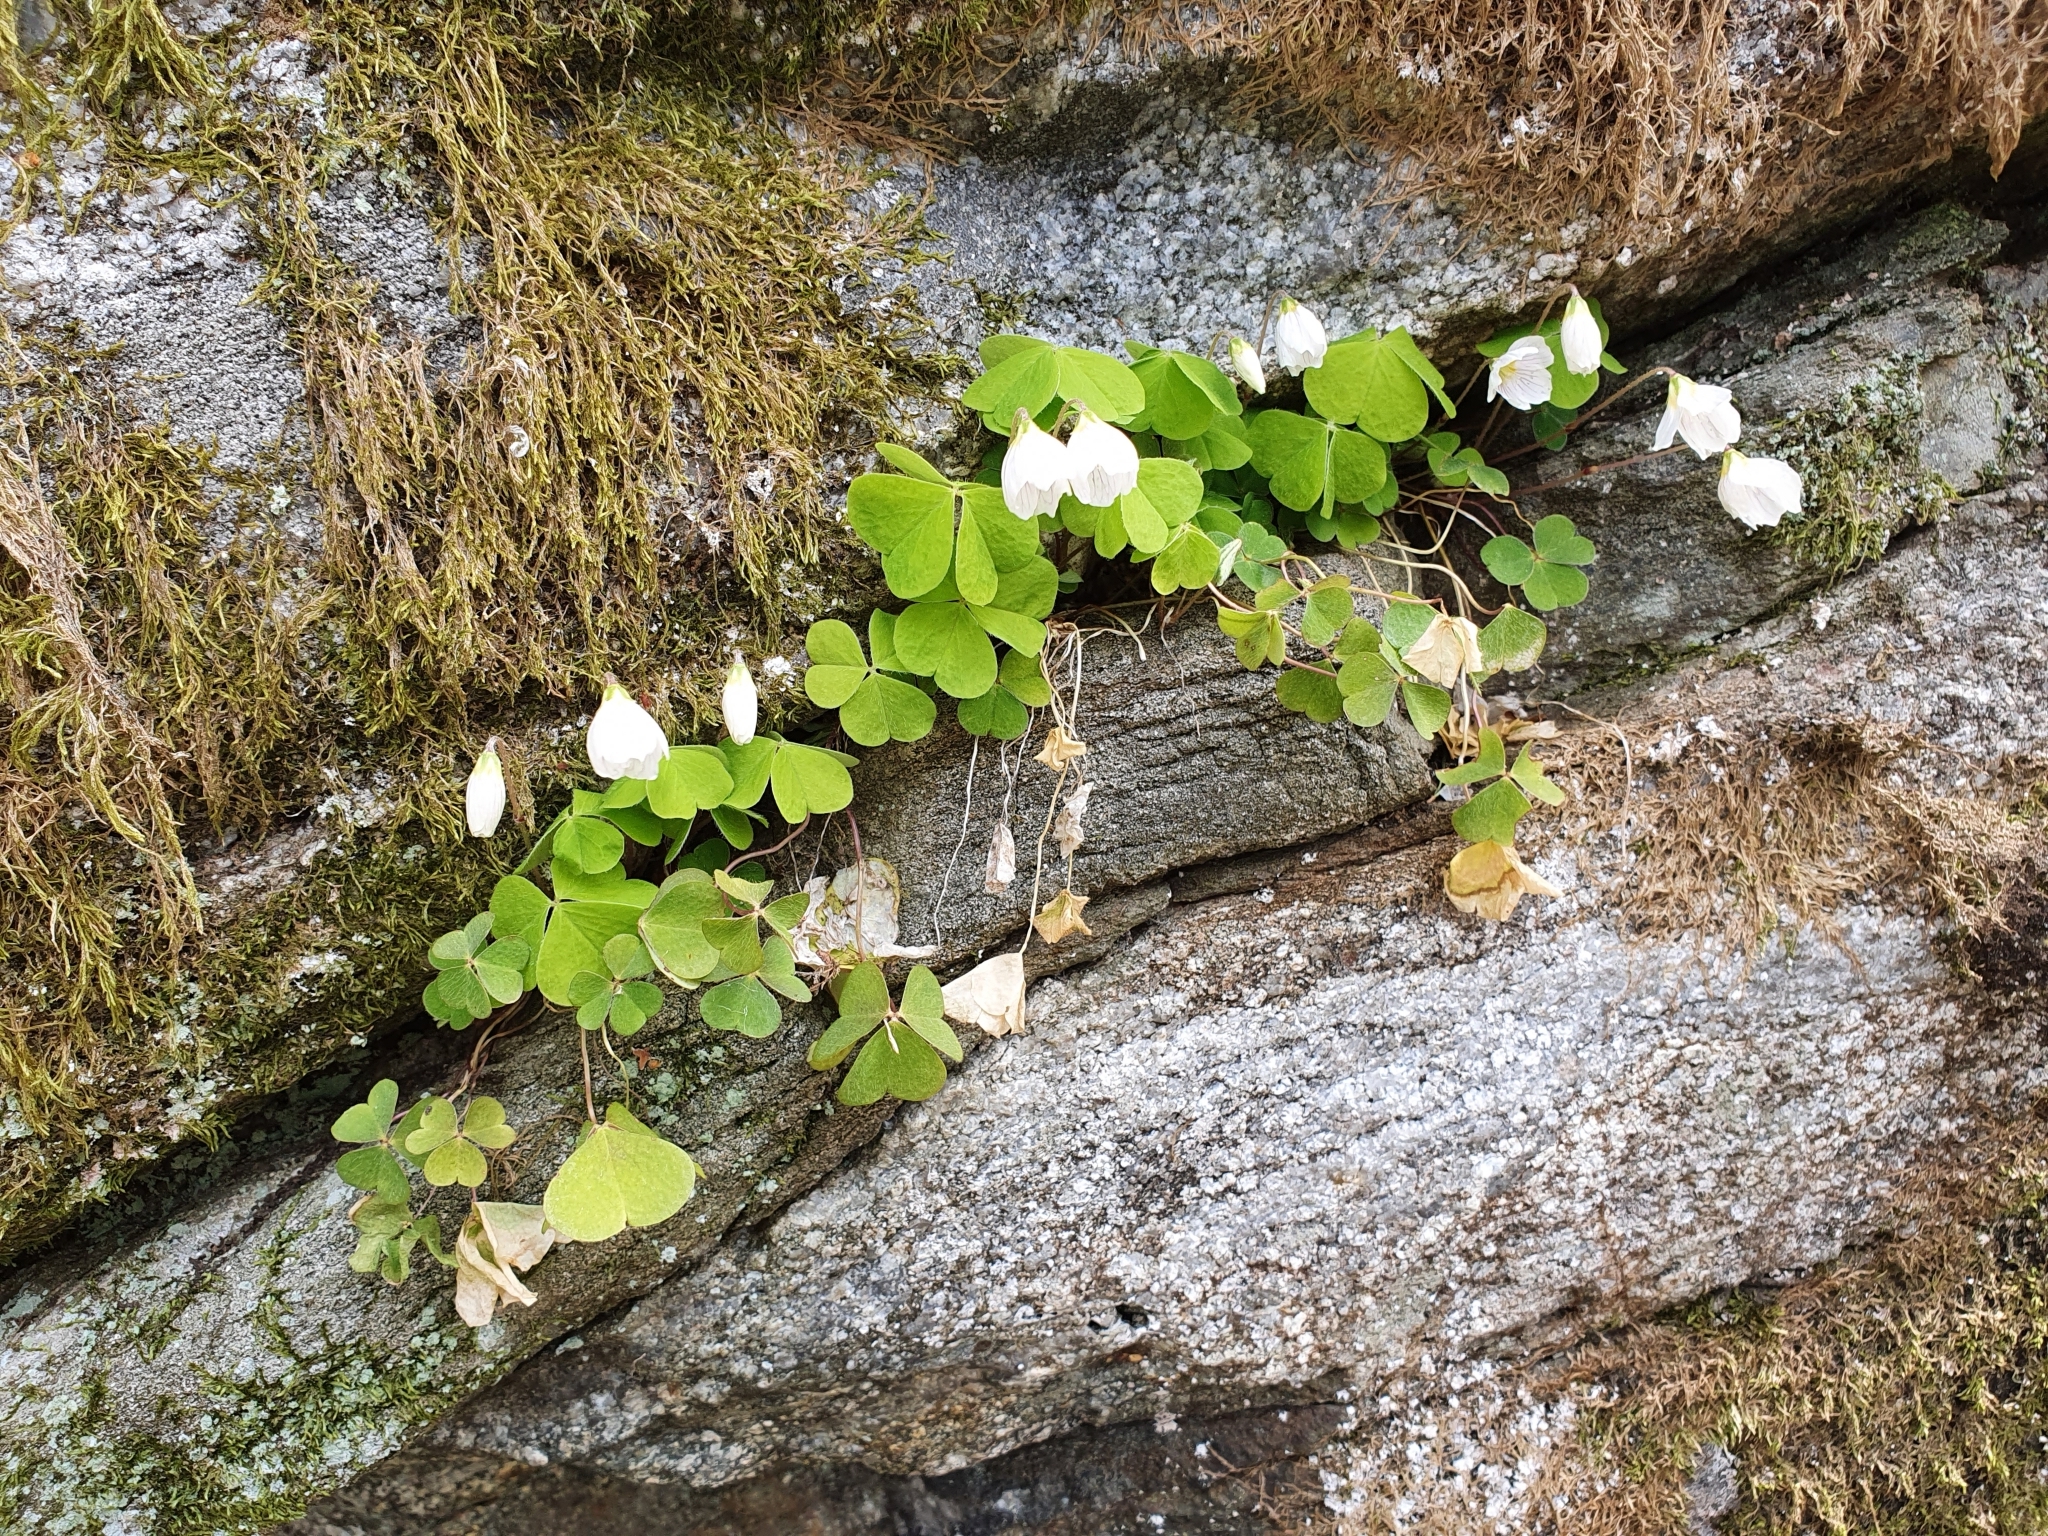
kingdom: Plantae
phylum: Tracheophyta
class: Magnoliopsida
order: Oxalidales
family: Oxalidaceae
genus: Oxalis
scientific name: Oxalis acetosella
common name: Wood-sorrel
